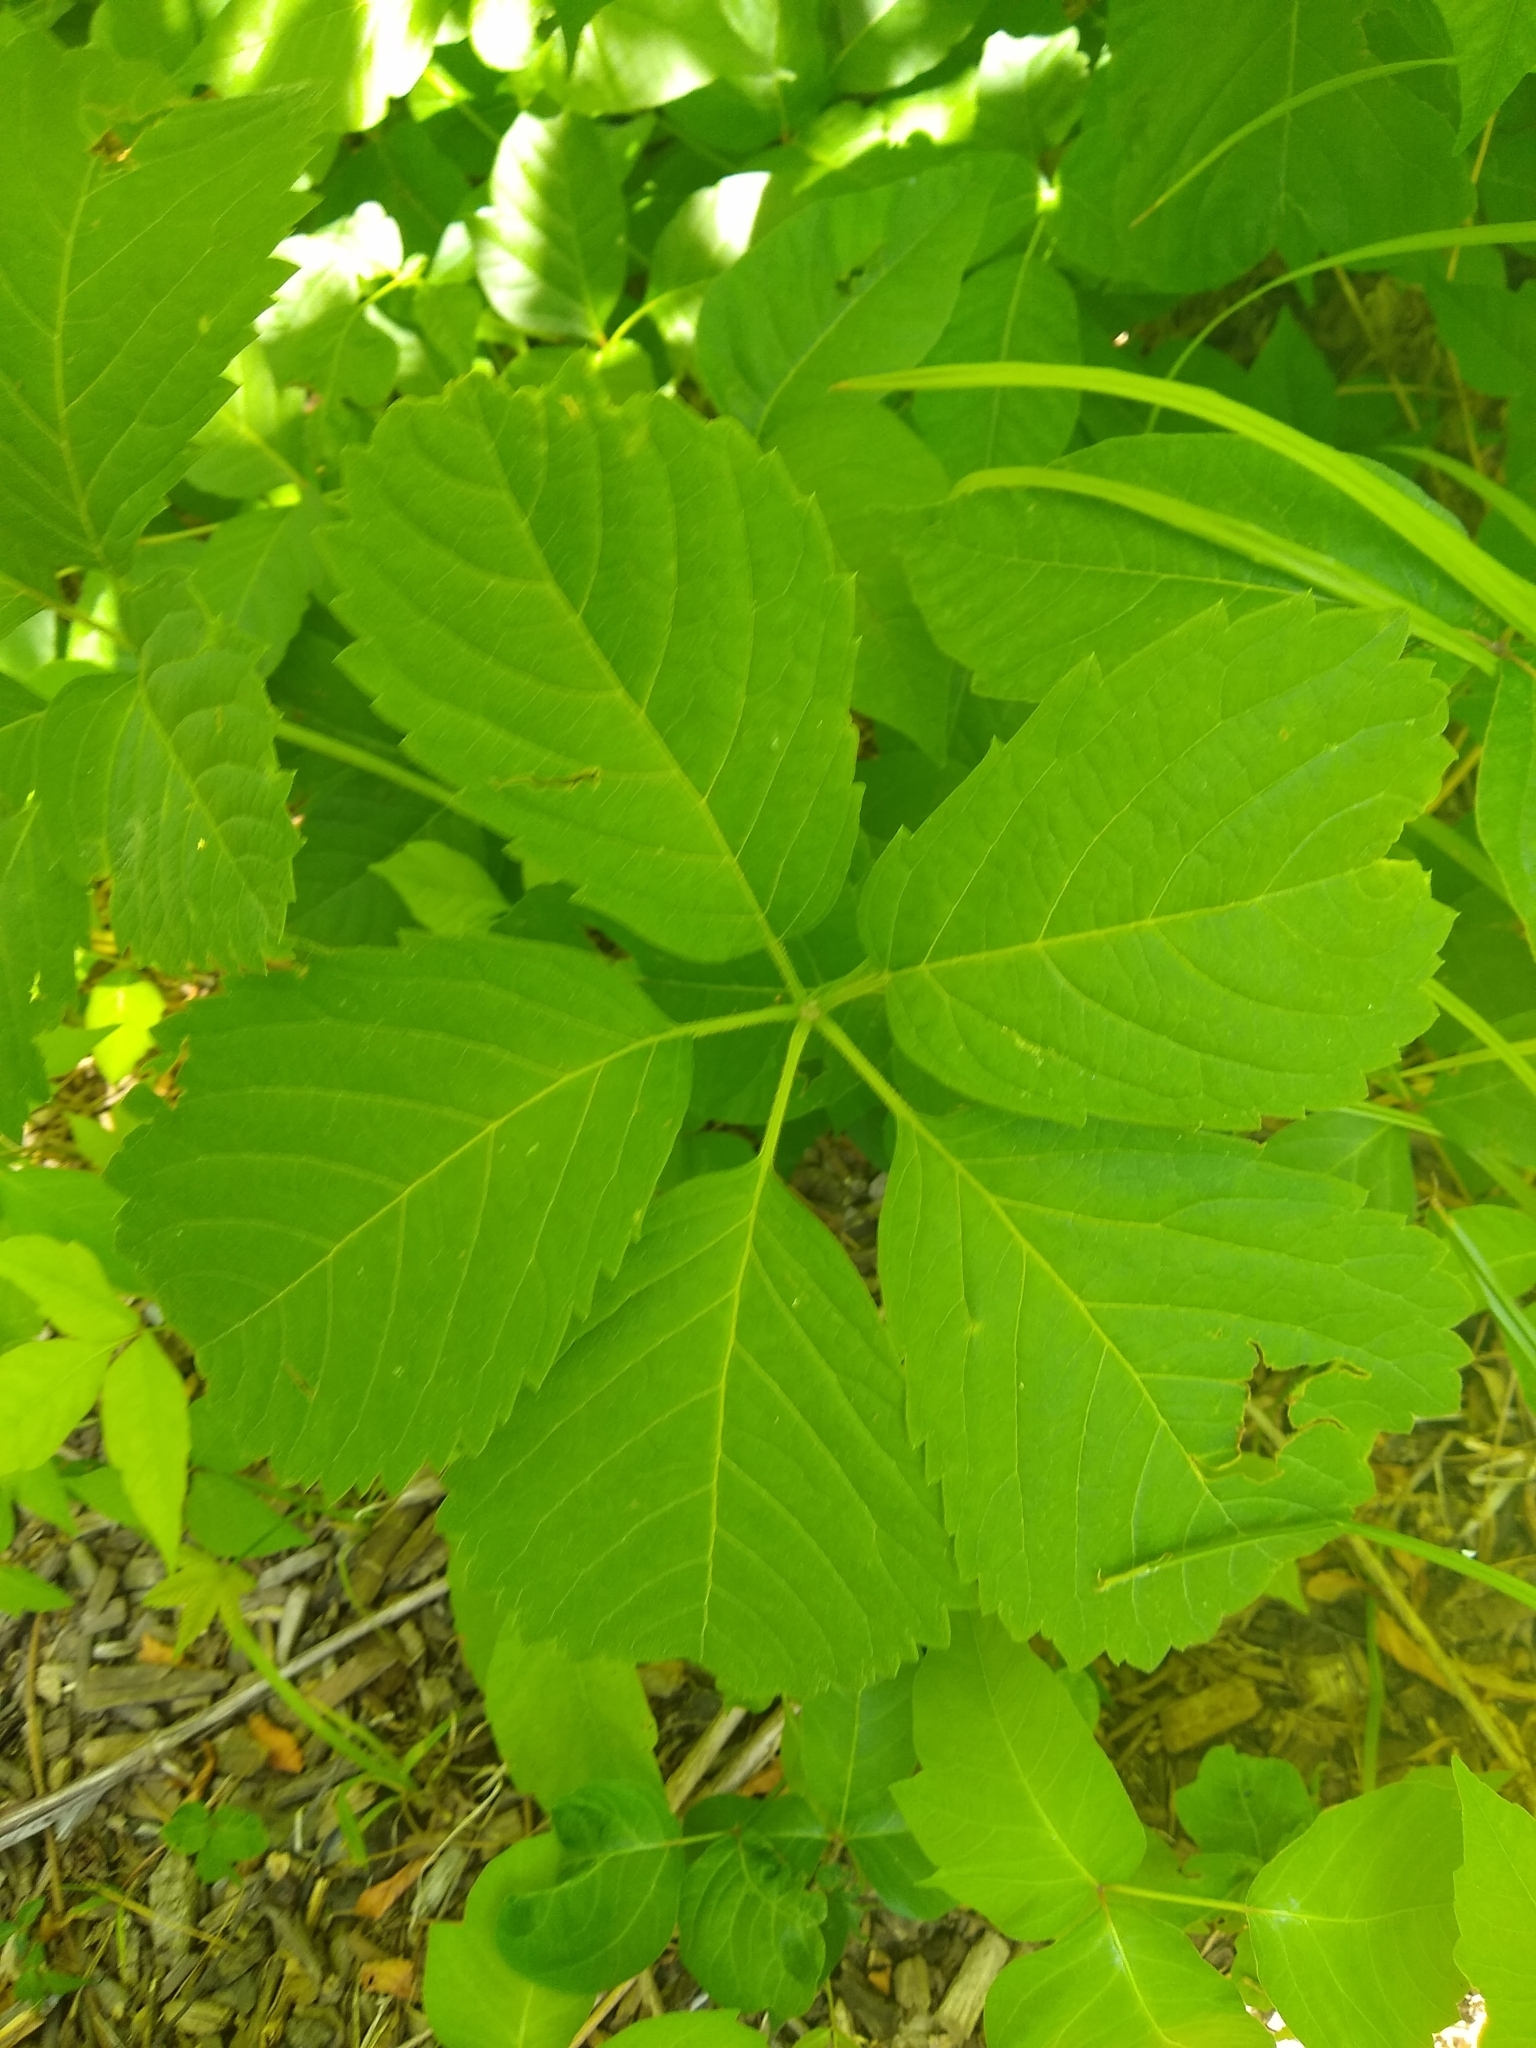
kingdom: Plantae
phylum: Tracheophyta
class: Magnoliopsida
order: Vitales
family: Vitaceae
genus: Parthenocissus
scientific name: Parthenocissus inserta
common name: False virginia-creeper
